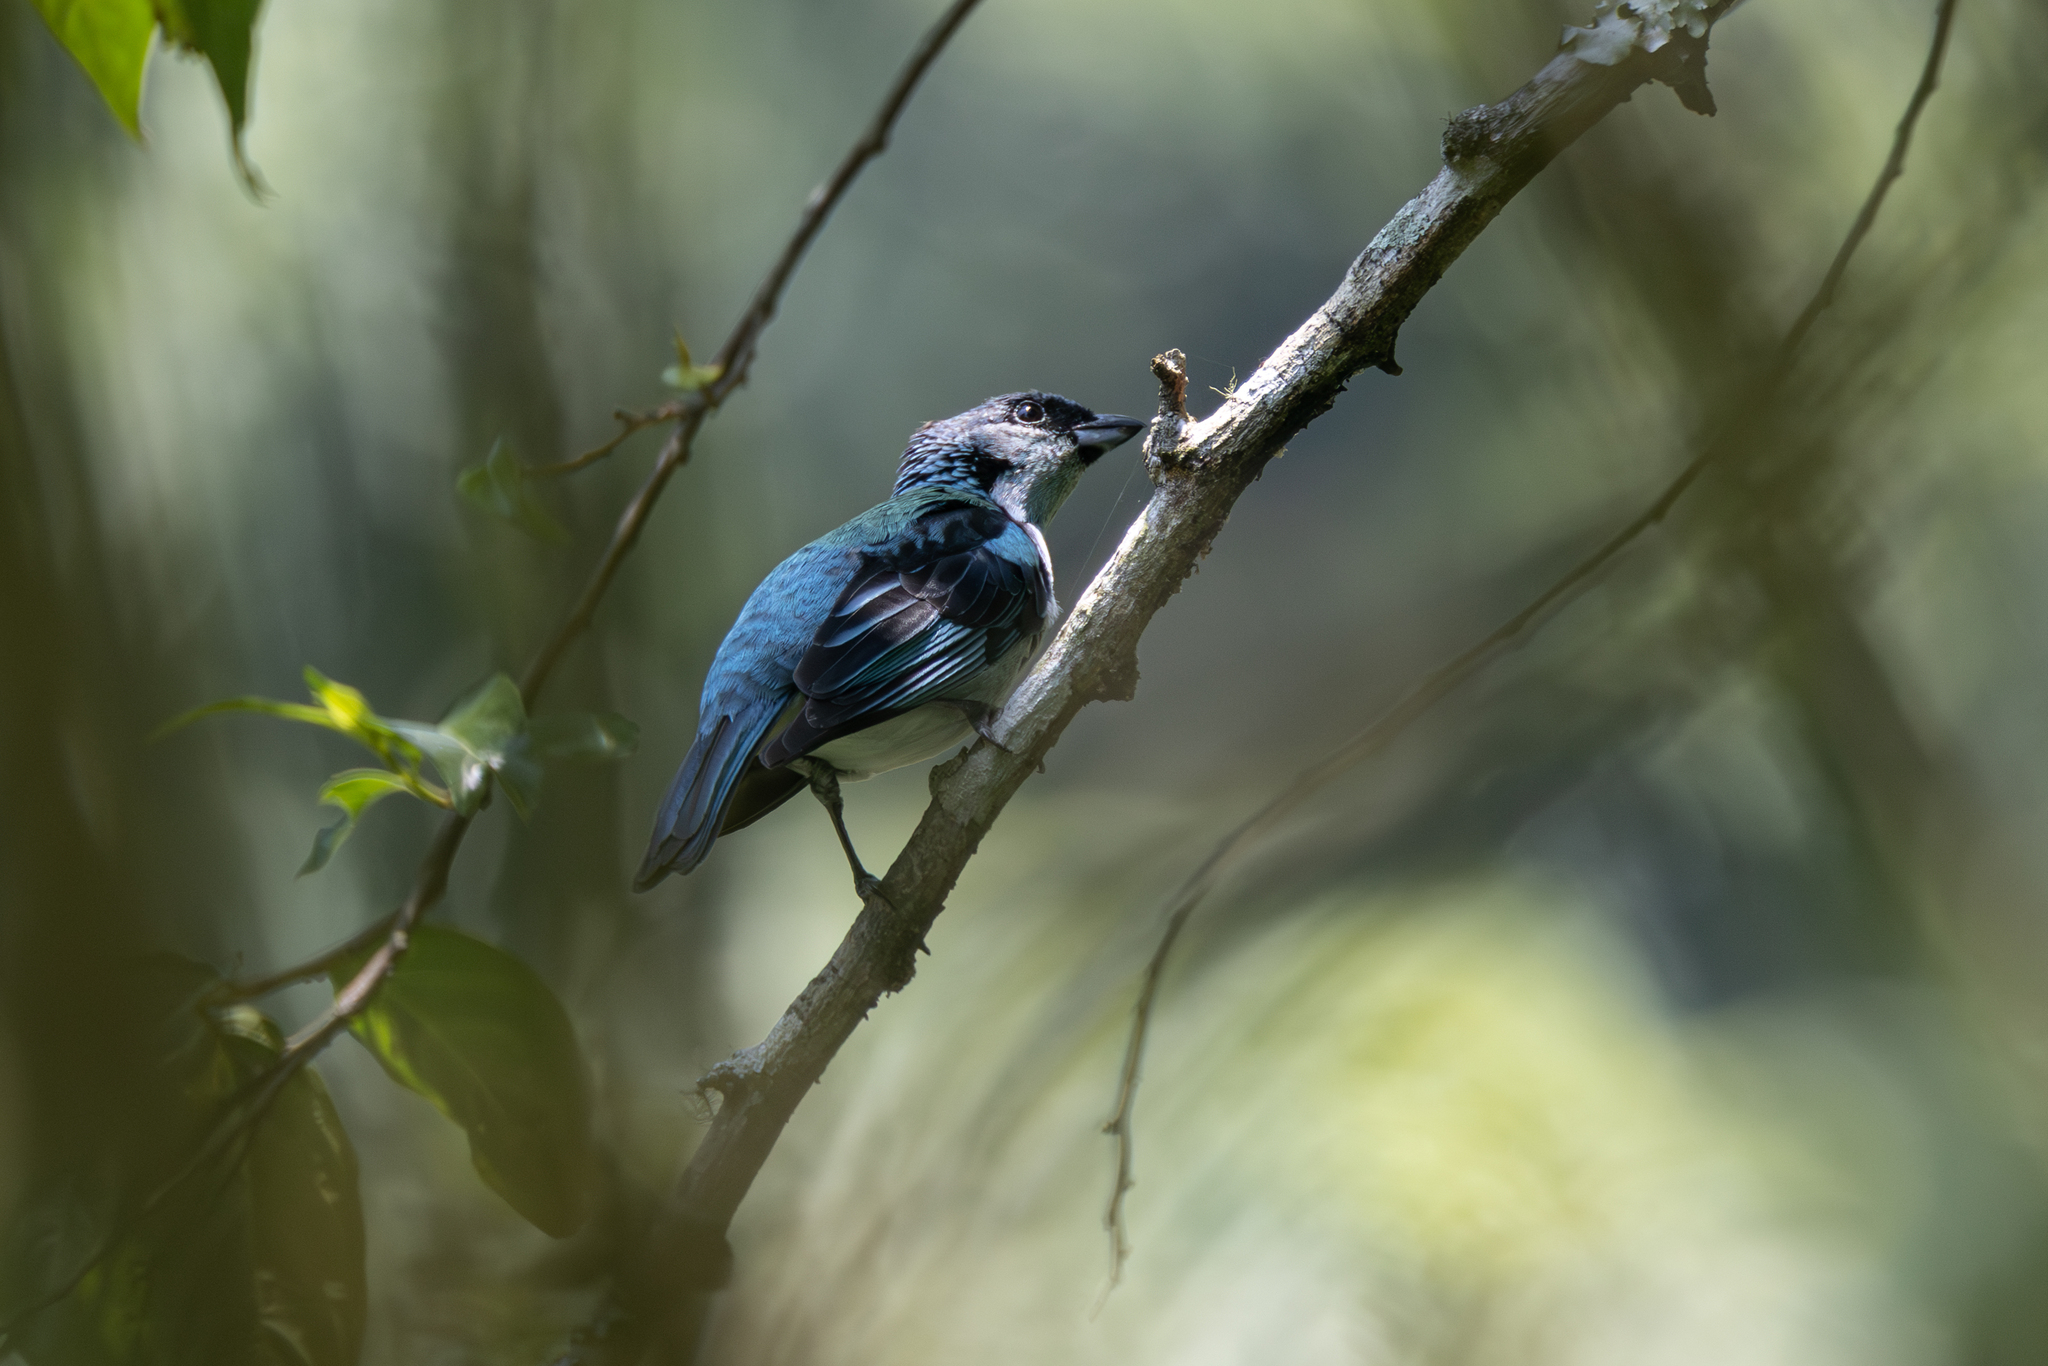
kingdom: Animalia
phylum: Chordata
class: Aves
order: Passeriformes
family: Thraupidae
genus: Poecilostreptus
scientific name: Poecilostreptus cabanisi
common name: Azure-rumped tanager
